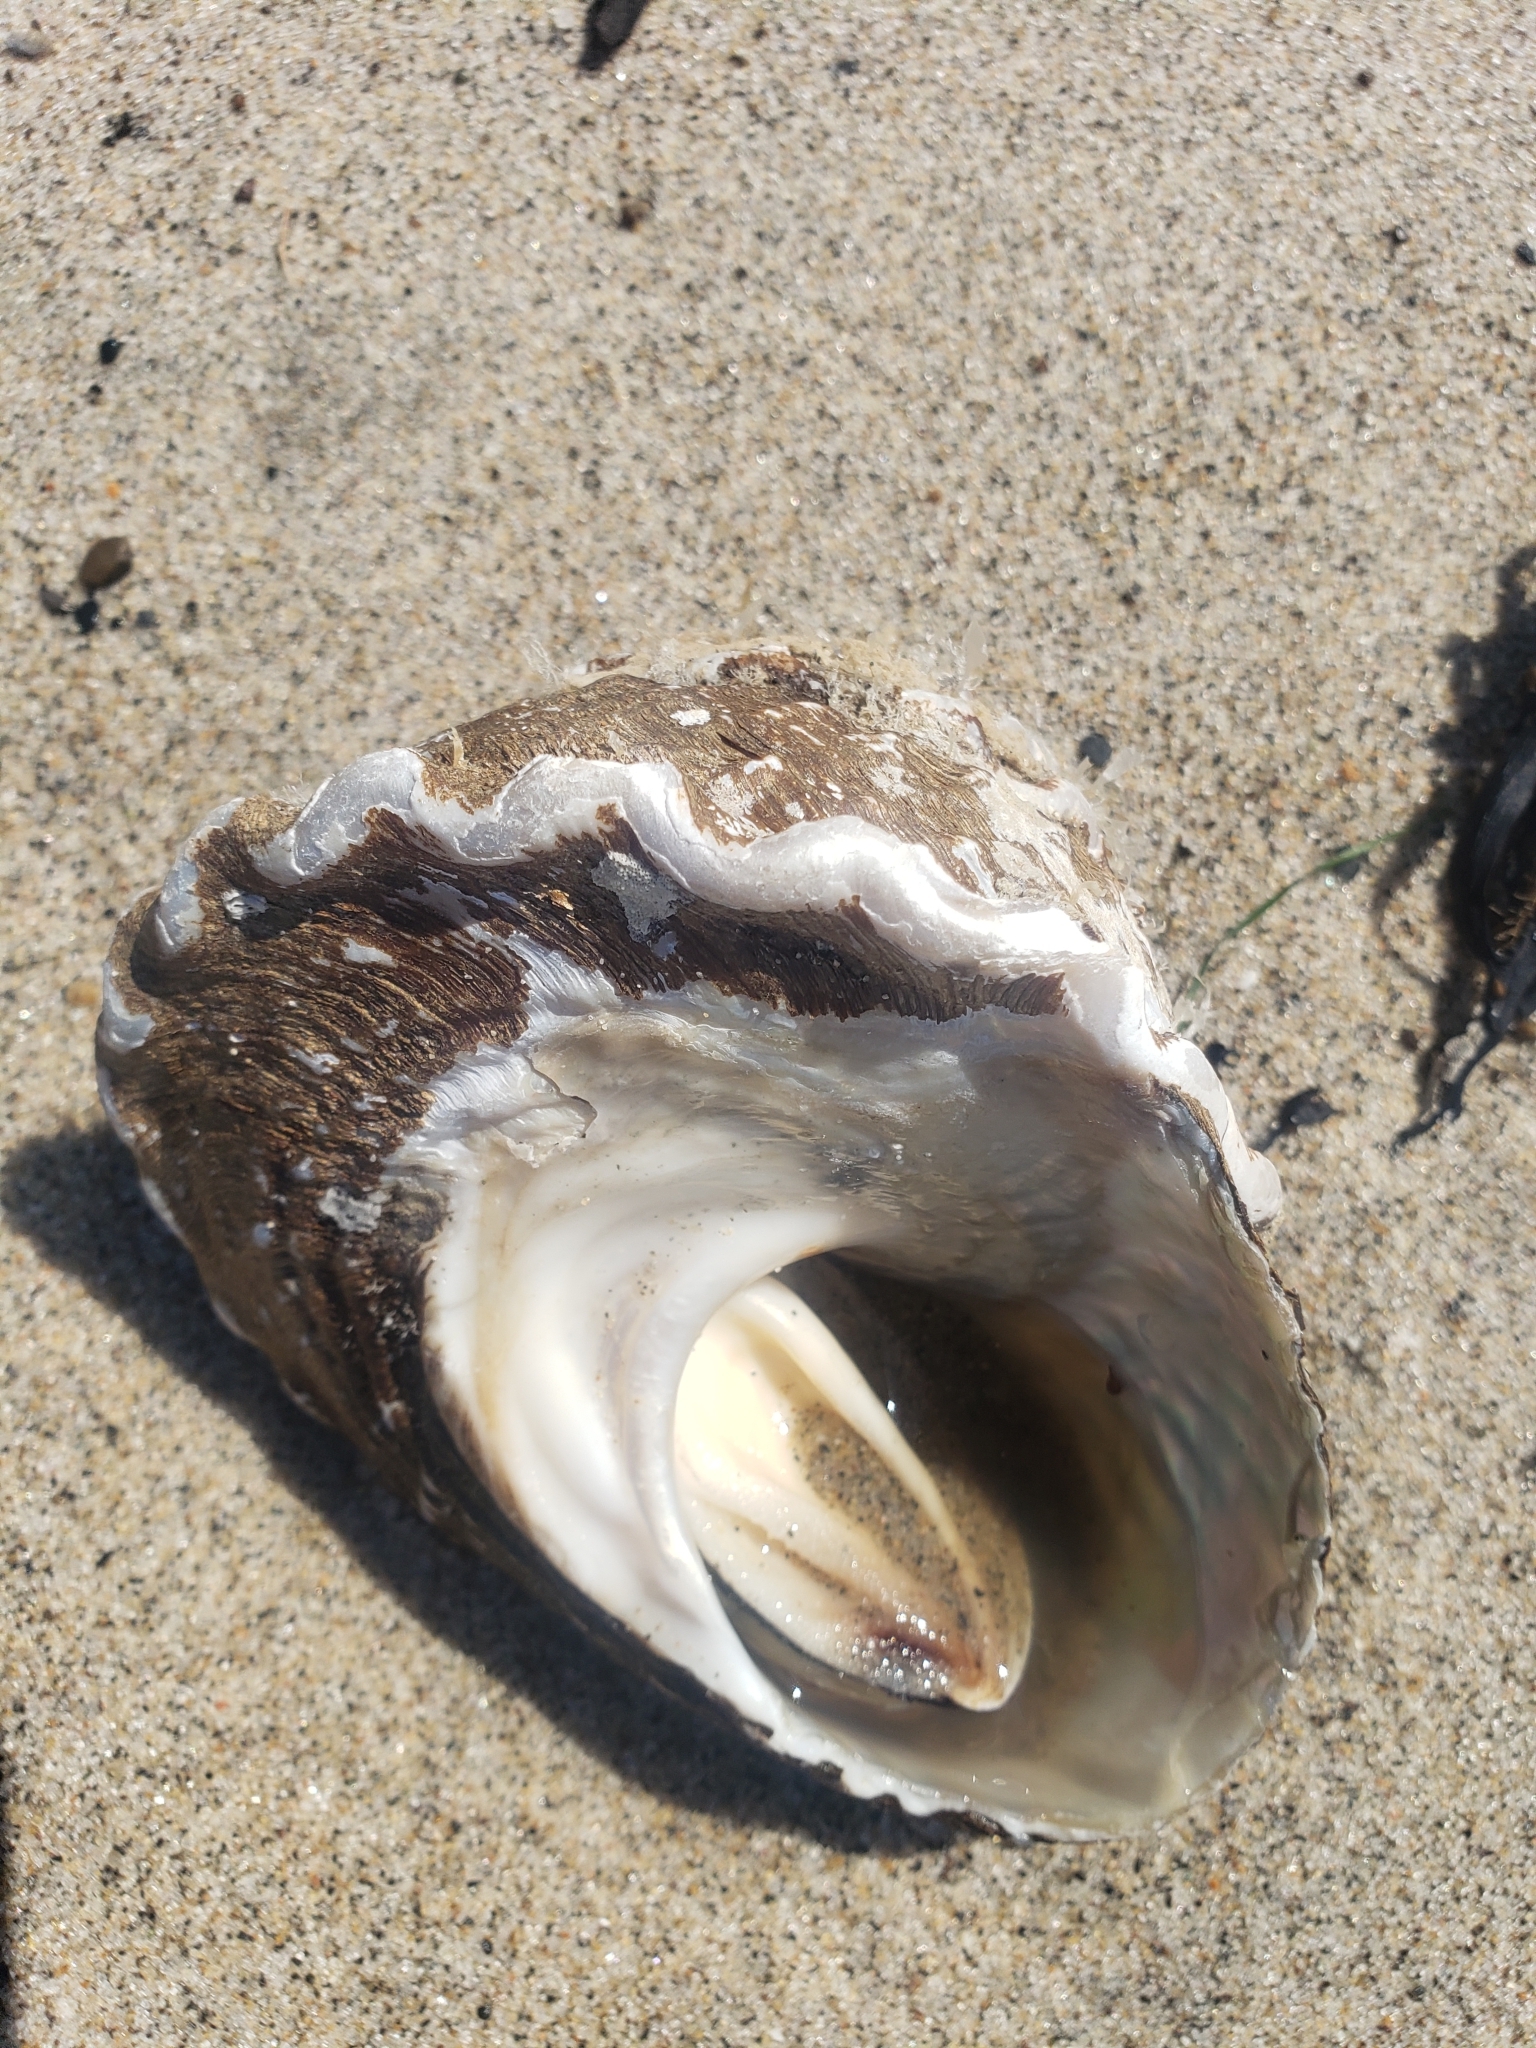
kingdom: Animalia
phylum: Mollusca
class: Gastropoda
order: Trochida
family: Turbinidae
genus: Megastraea
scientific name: Megastraea undosa
